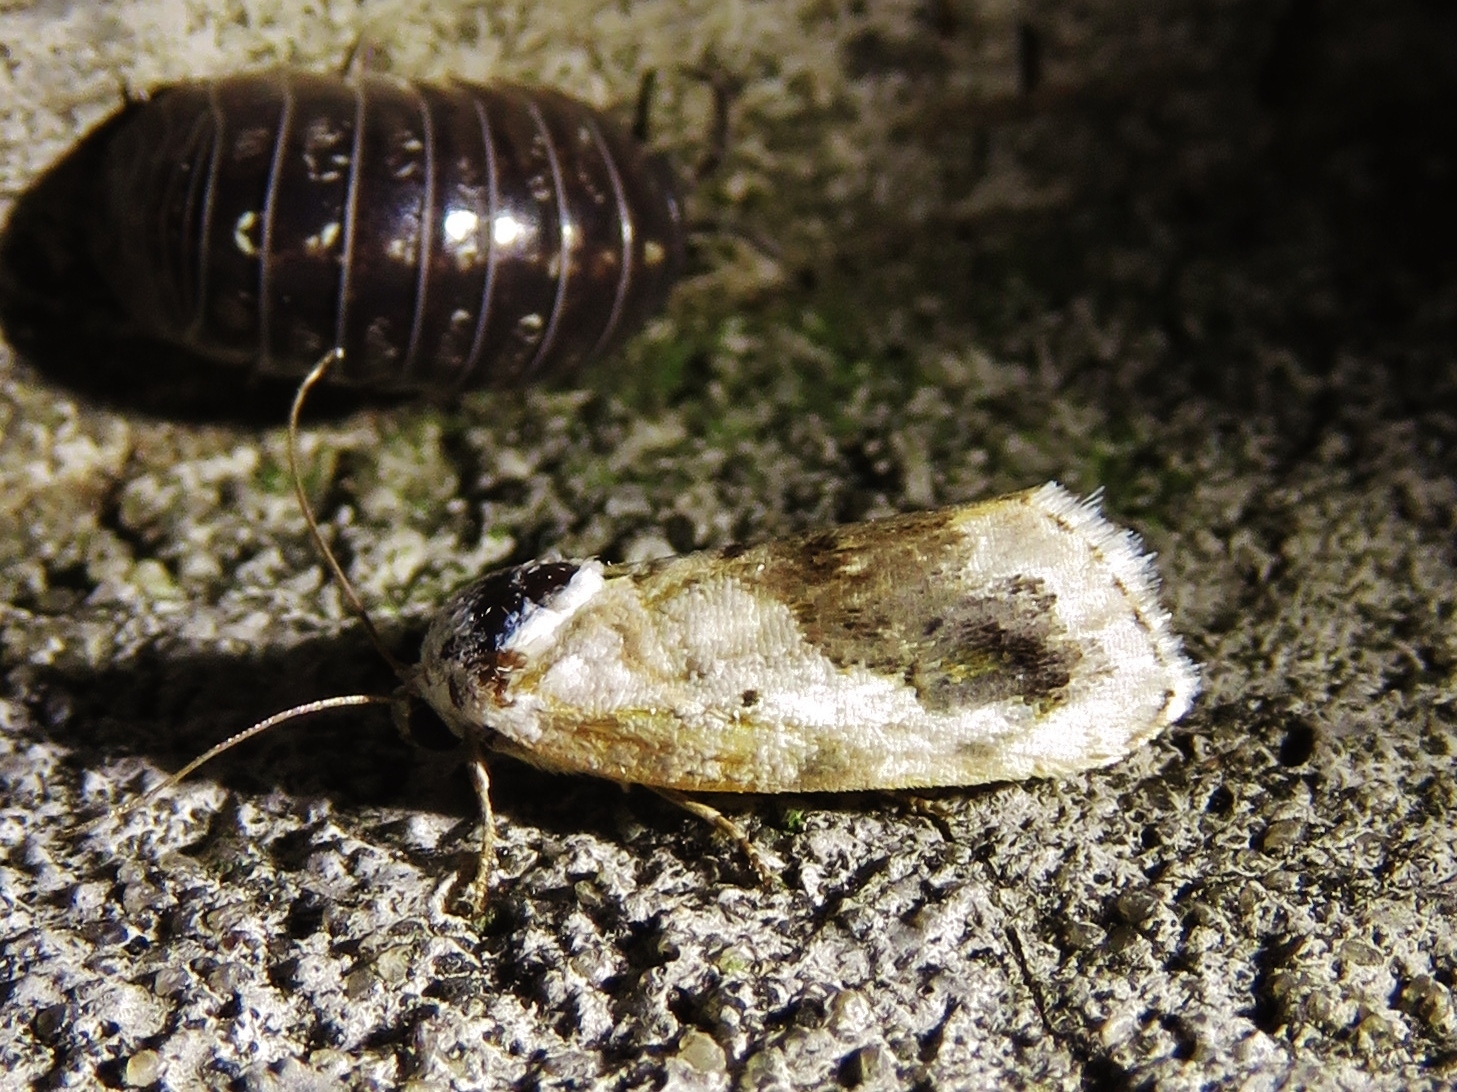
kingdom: Animalia
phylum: Arthropoda
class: Insecta
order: Lepidoptera
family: Noctuidae
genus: Acontia
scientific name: Acontia erastrioides
